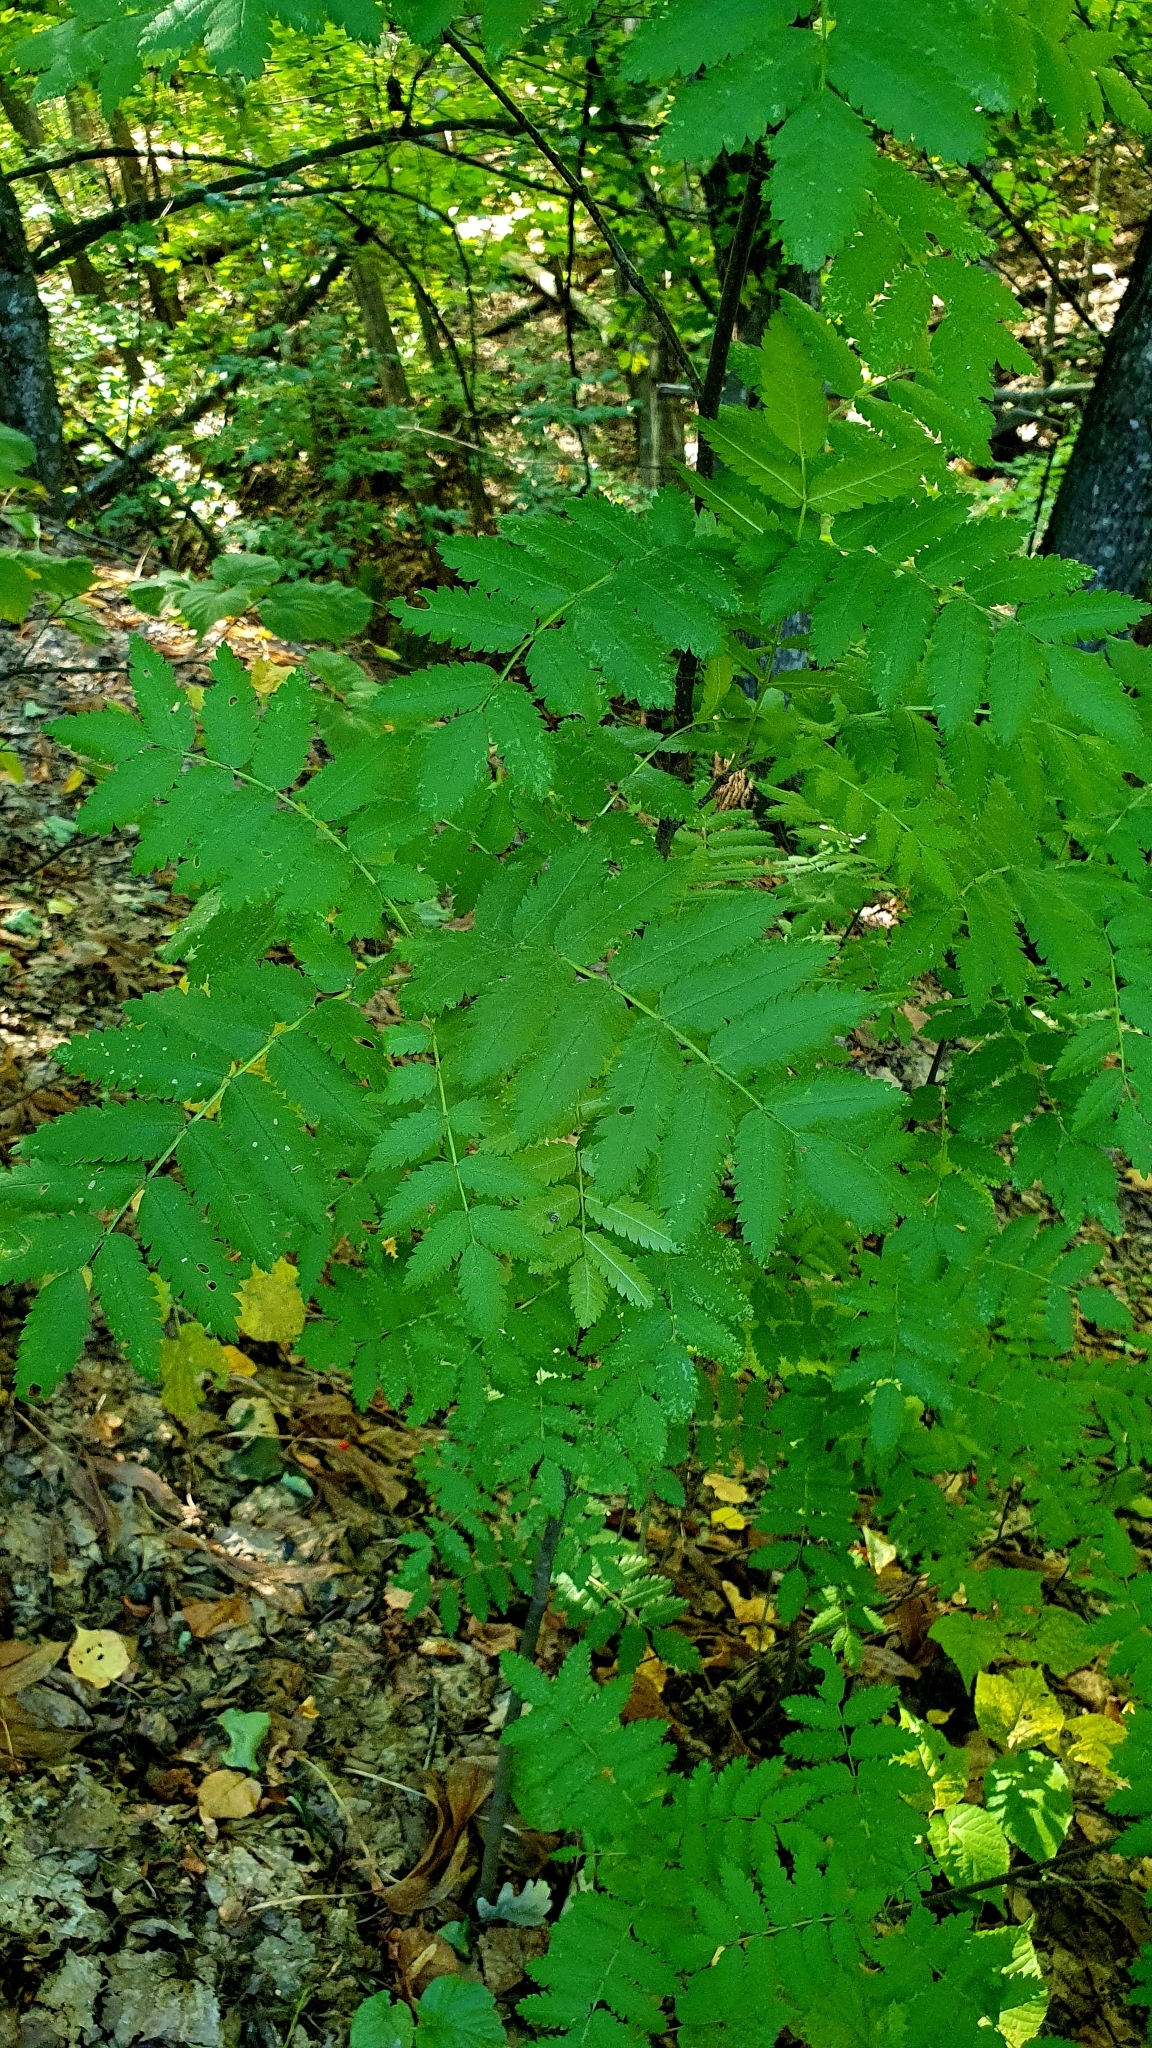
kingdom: Plantae
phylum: Tracheophyta
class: Magnoliopsida
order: Rosales
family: Rosaceae
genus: Sorbus
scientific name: Sorbus aucuparia
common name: Rowan
